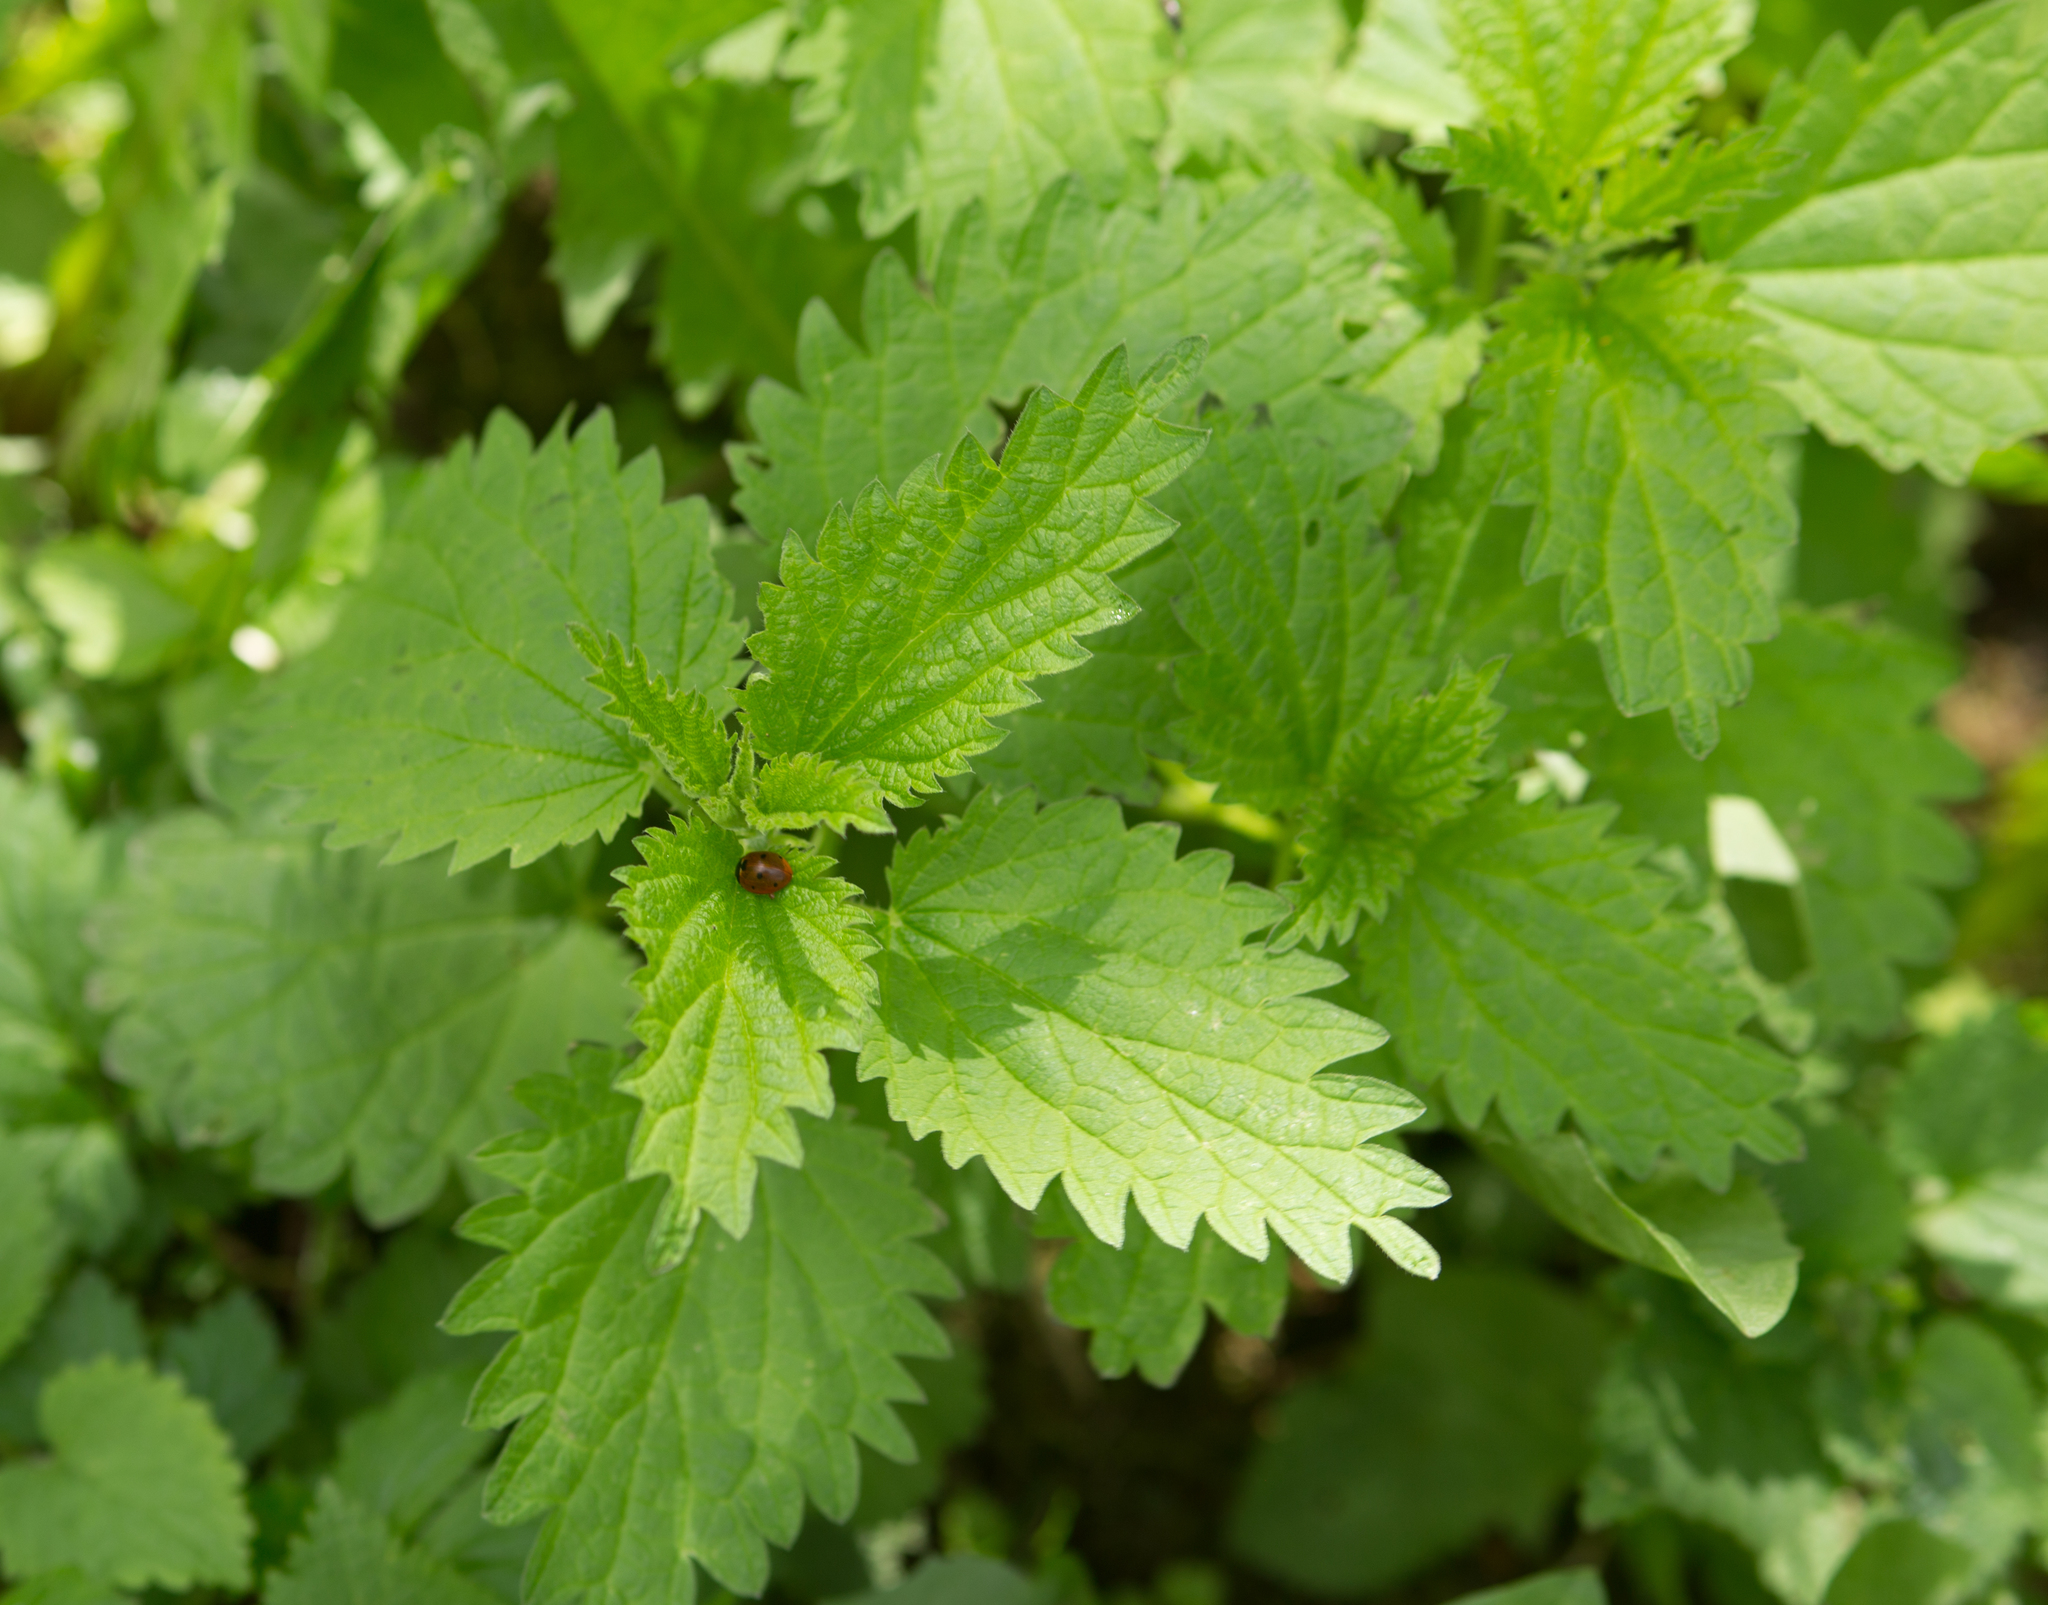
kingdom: Plantae
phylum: Tracheophyta
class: Magnoliopsida
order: Rosales
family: Urticaceae
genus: Urtica
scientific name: Urtica dioica
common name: Common nettle
